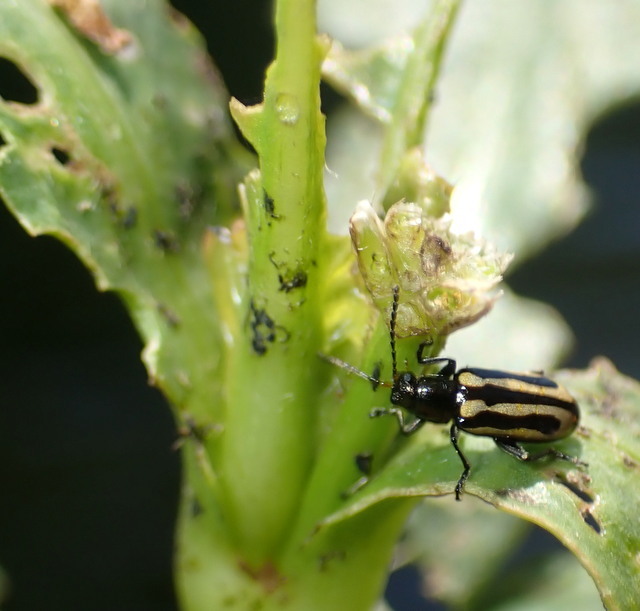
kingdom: Animalia
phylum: Arthropoda
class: Insecta
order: Coleoptera
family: Chrysomelidae
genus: Agasicles
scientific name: Agasicles hygrophila
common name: Alligatorweed flea beetle
